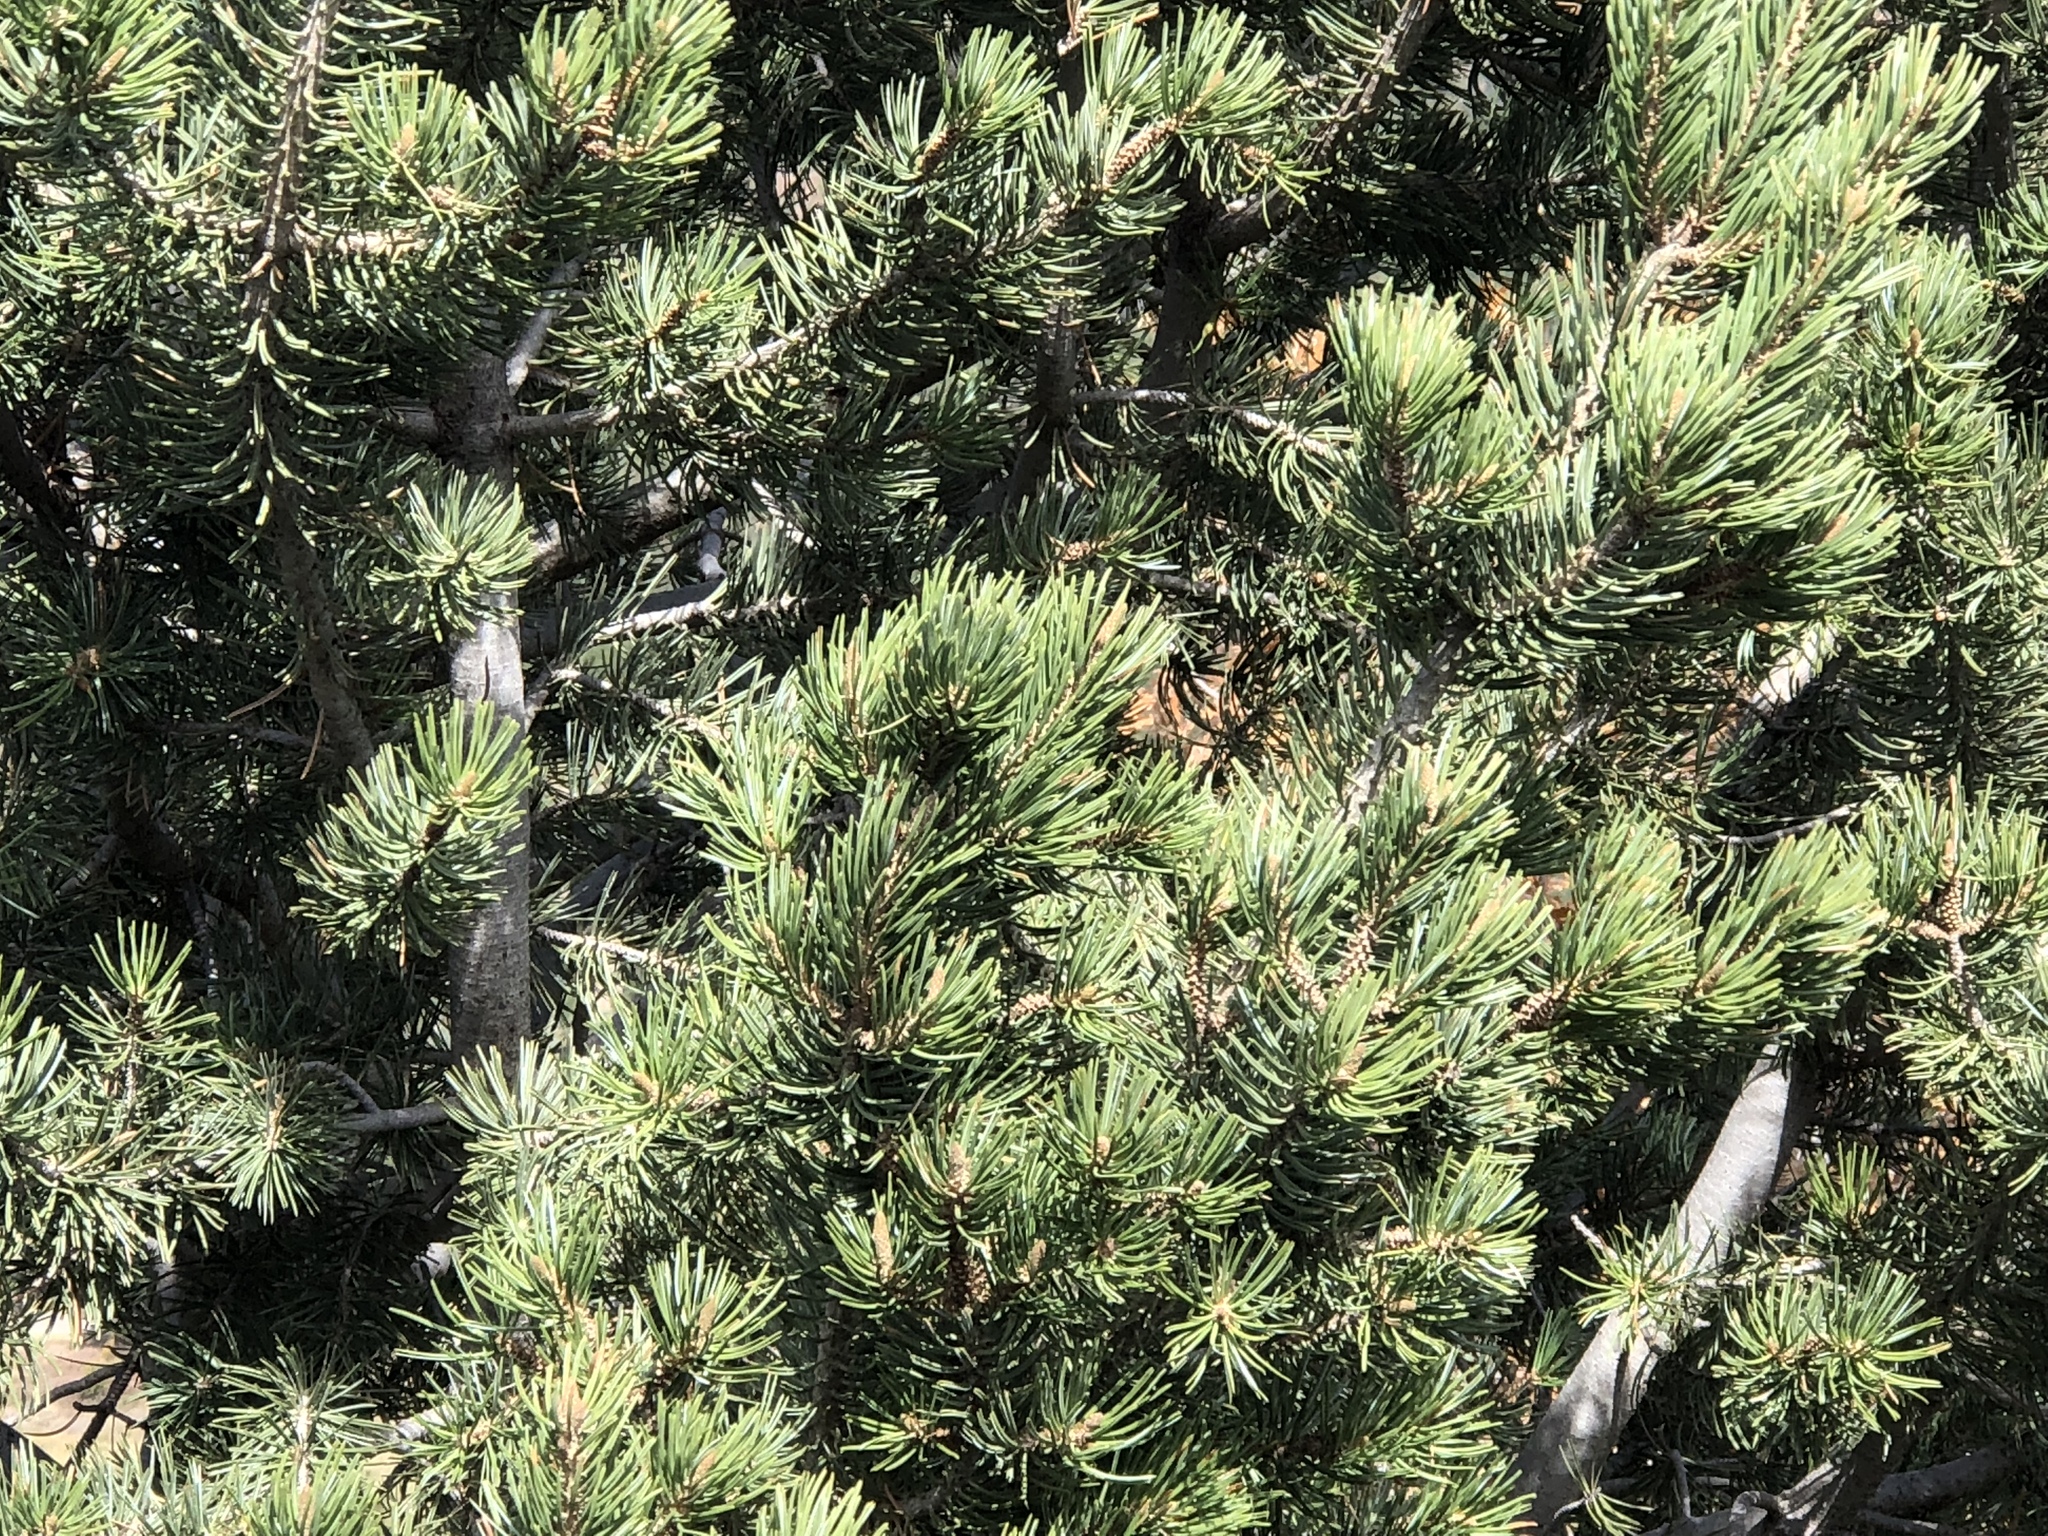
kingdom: Plantae
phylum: Tracheophyta
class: Pinopsida
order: Pinales
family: Pinaceae
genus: Pinus
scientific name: Pinus edulis
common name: Colorado pinyon
